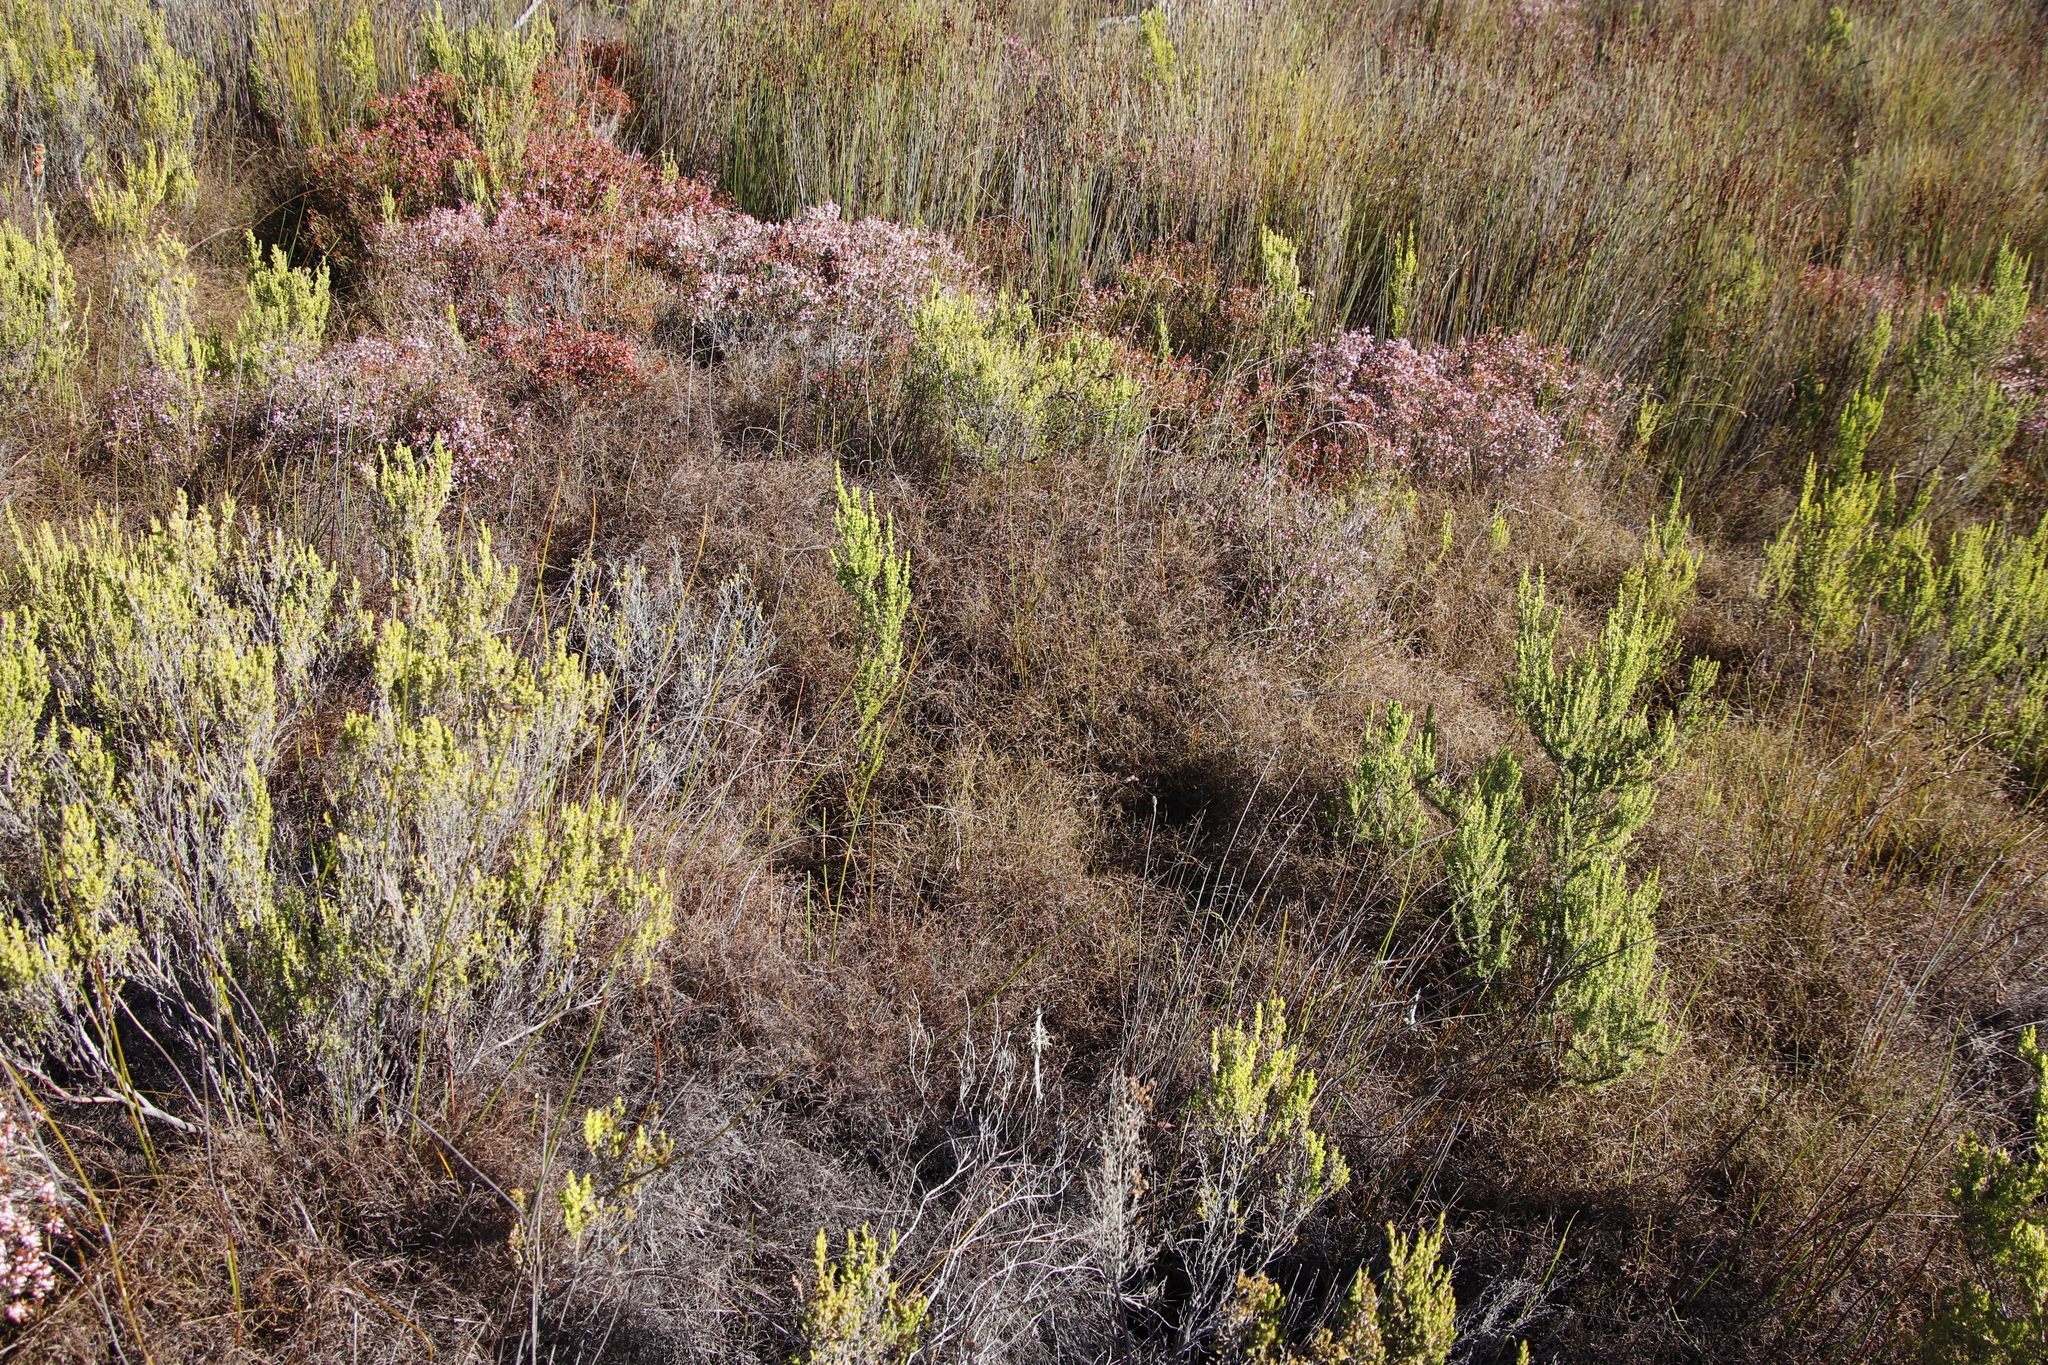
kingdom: Plantae
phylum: Tracheophyta
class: Liliopsida
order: Poales
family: Restionaceae
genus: Restio
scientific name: Restio versatilis
